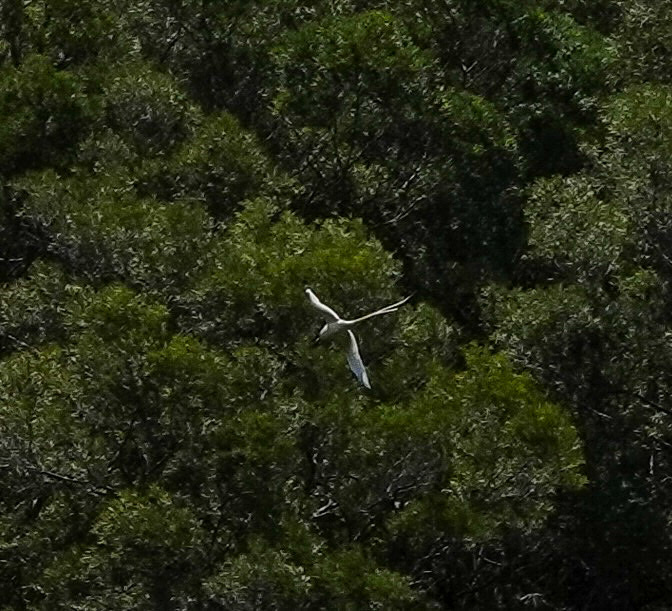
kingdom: Animalia
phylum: Chordata
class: Aves
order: Phaethontiformes
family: Phaethontidae
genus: Phaethon
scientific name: Phaethon lepturus
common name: White-tailed tropicbird
